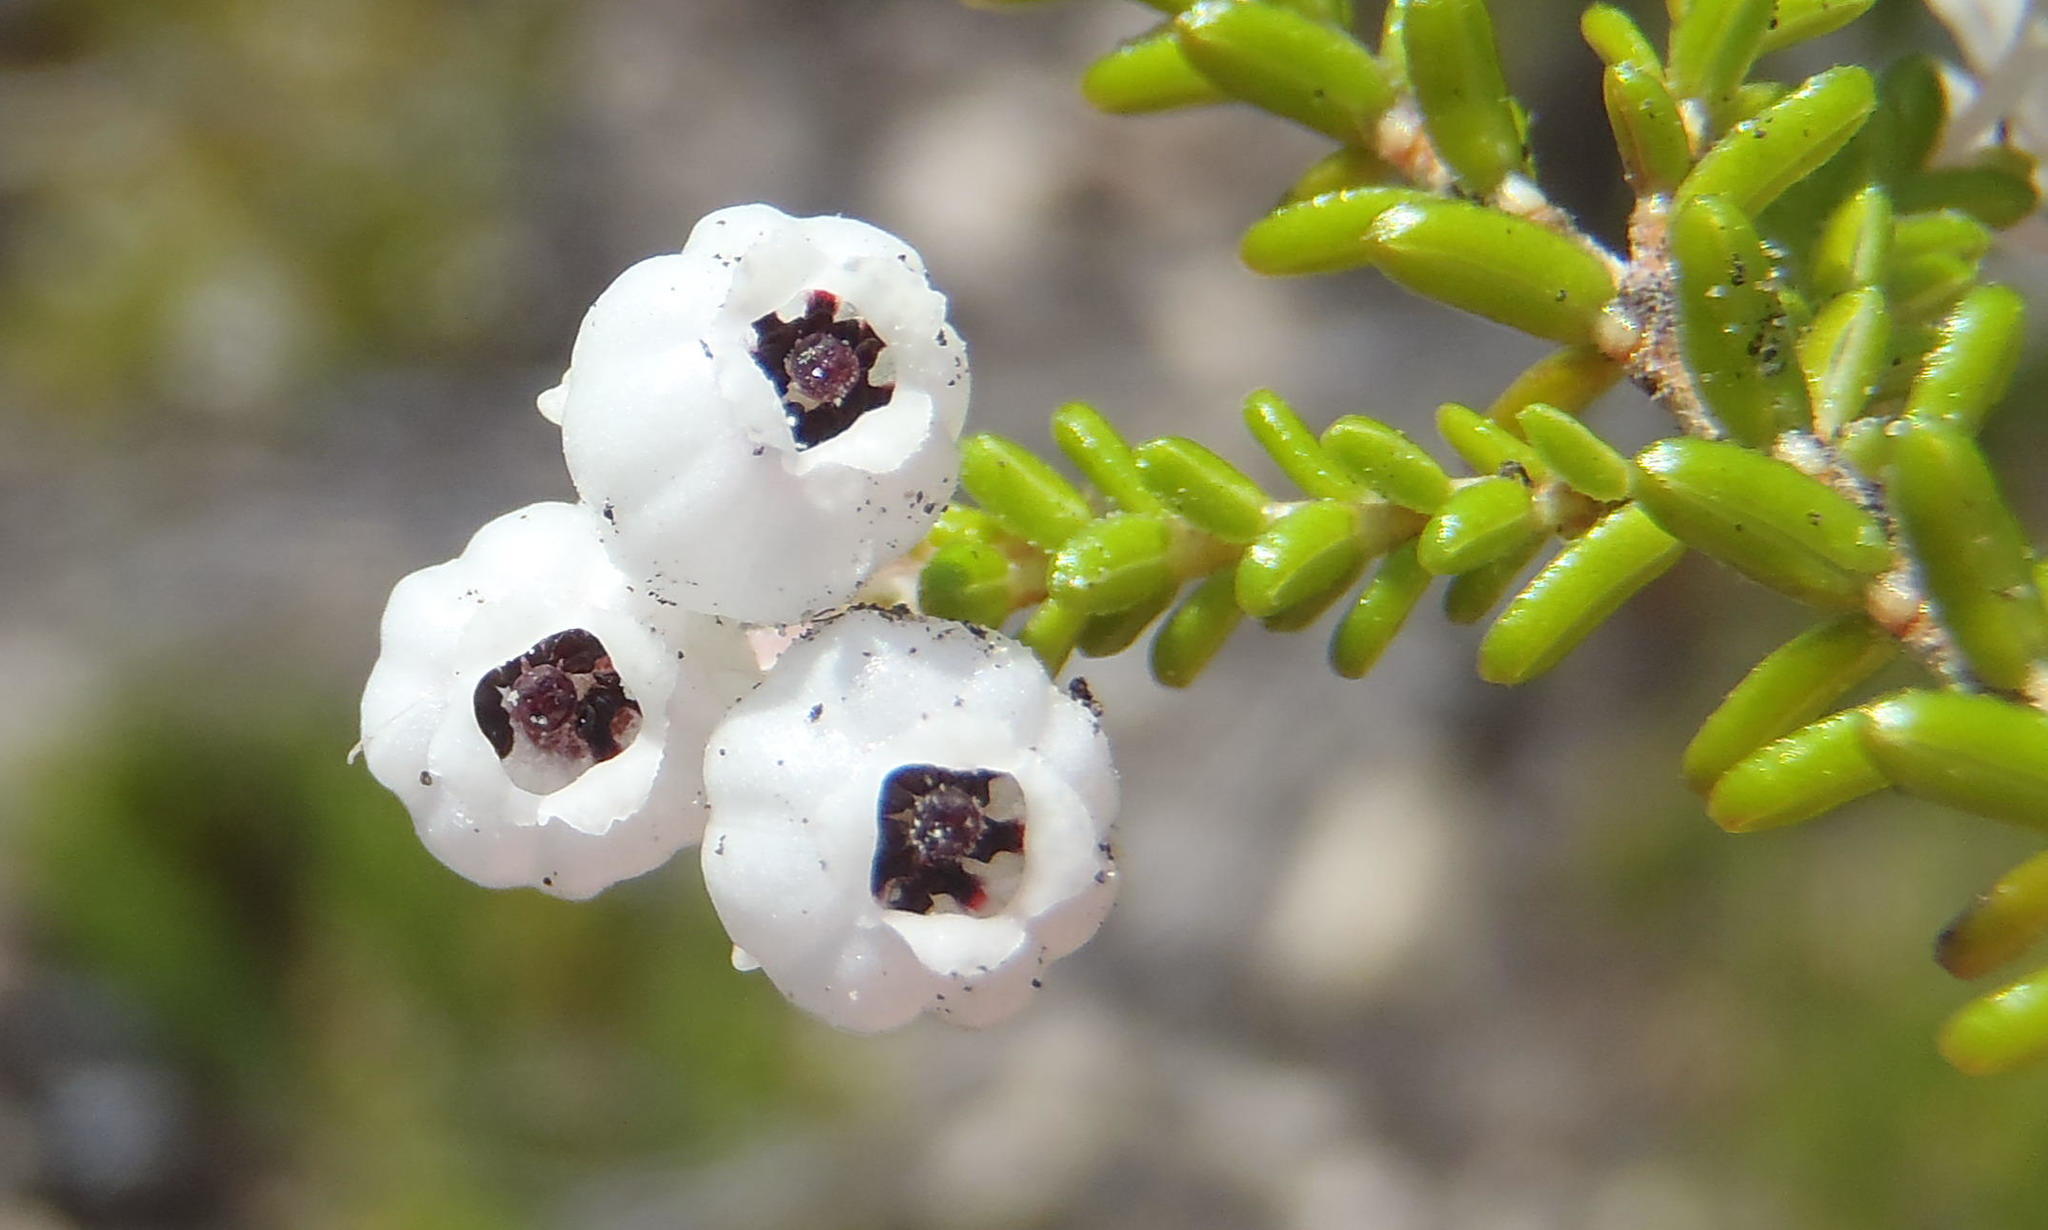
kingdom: Plantae
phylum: Tracheophyta
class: Magnoliopsida
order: Ericales
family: Ericaceae
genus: Erica
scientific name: Erica formosa
